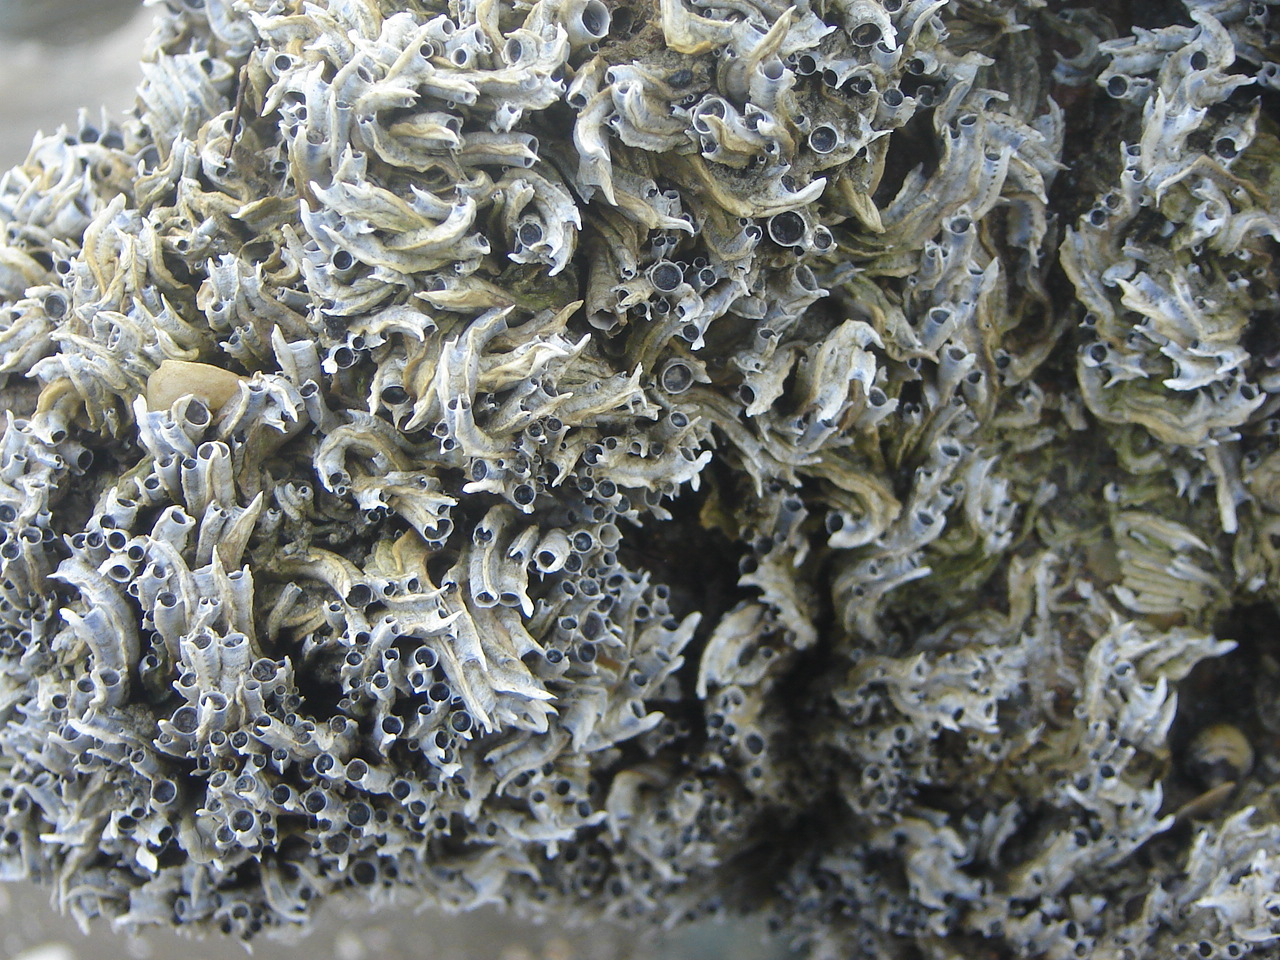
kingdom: Animalia
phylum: Annelida
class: Polychaeta
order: Sabellida
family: Serpulidae
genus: Spirobranchus
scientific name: Spirobranchus cariniferus
